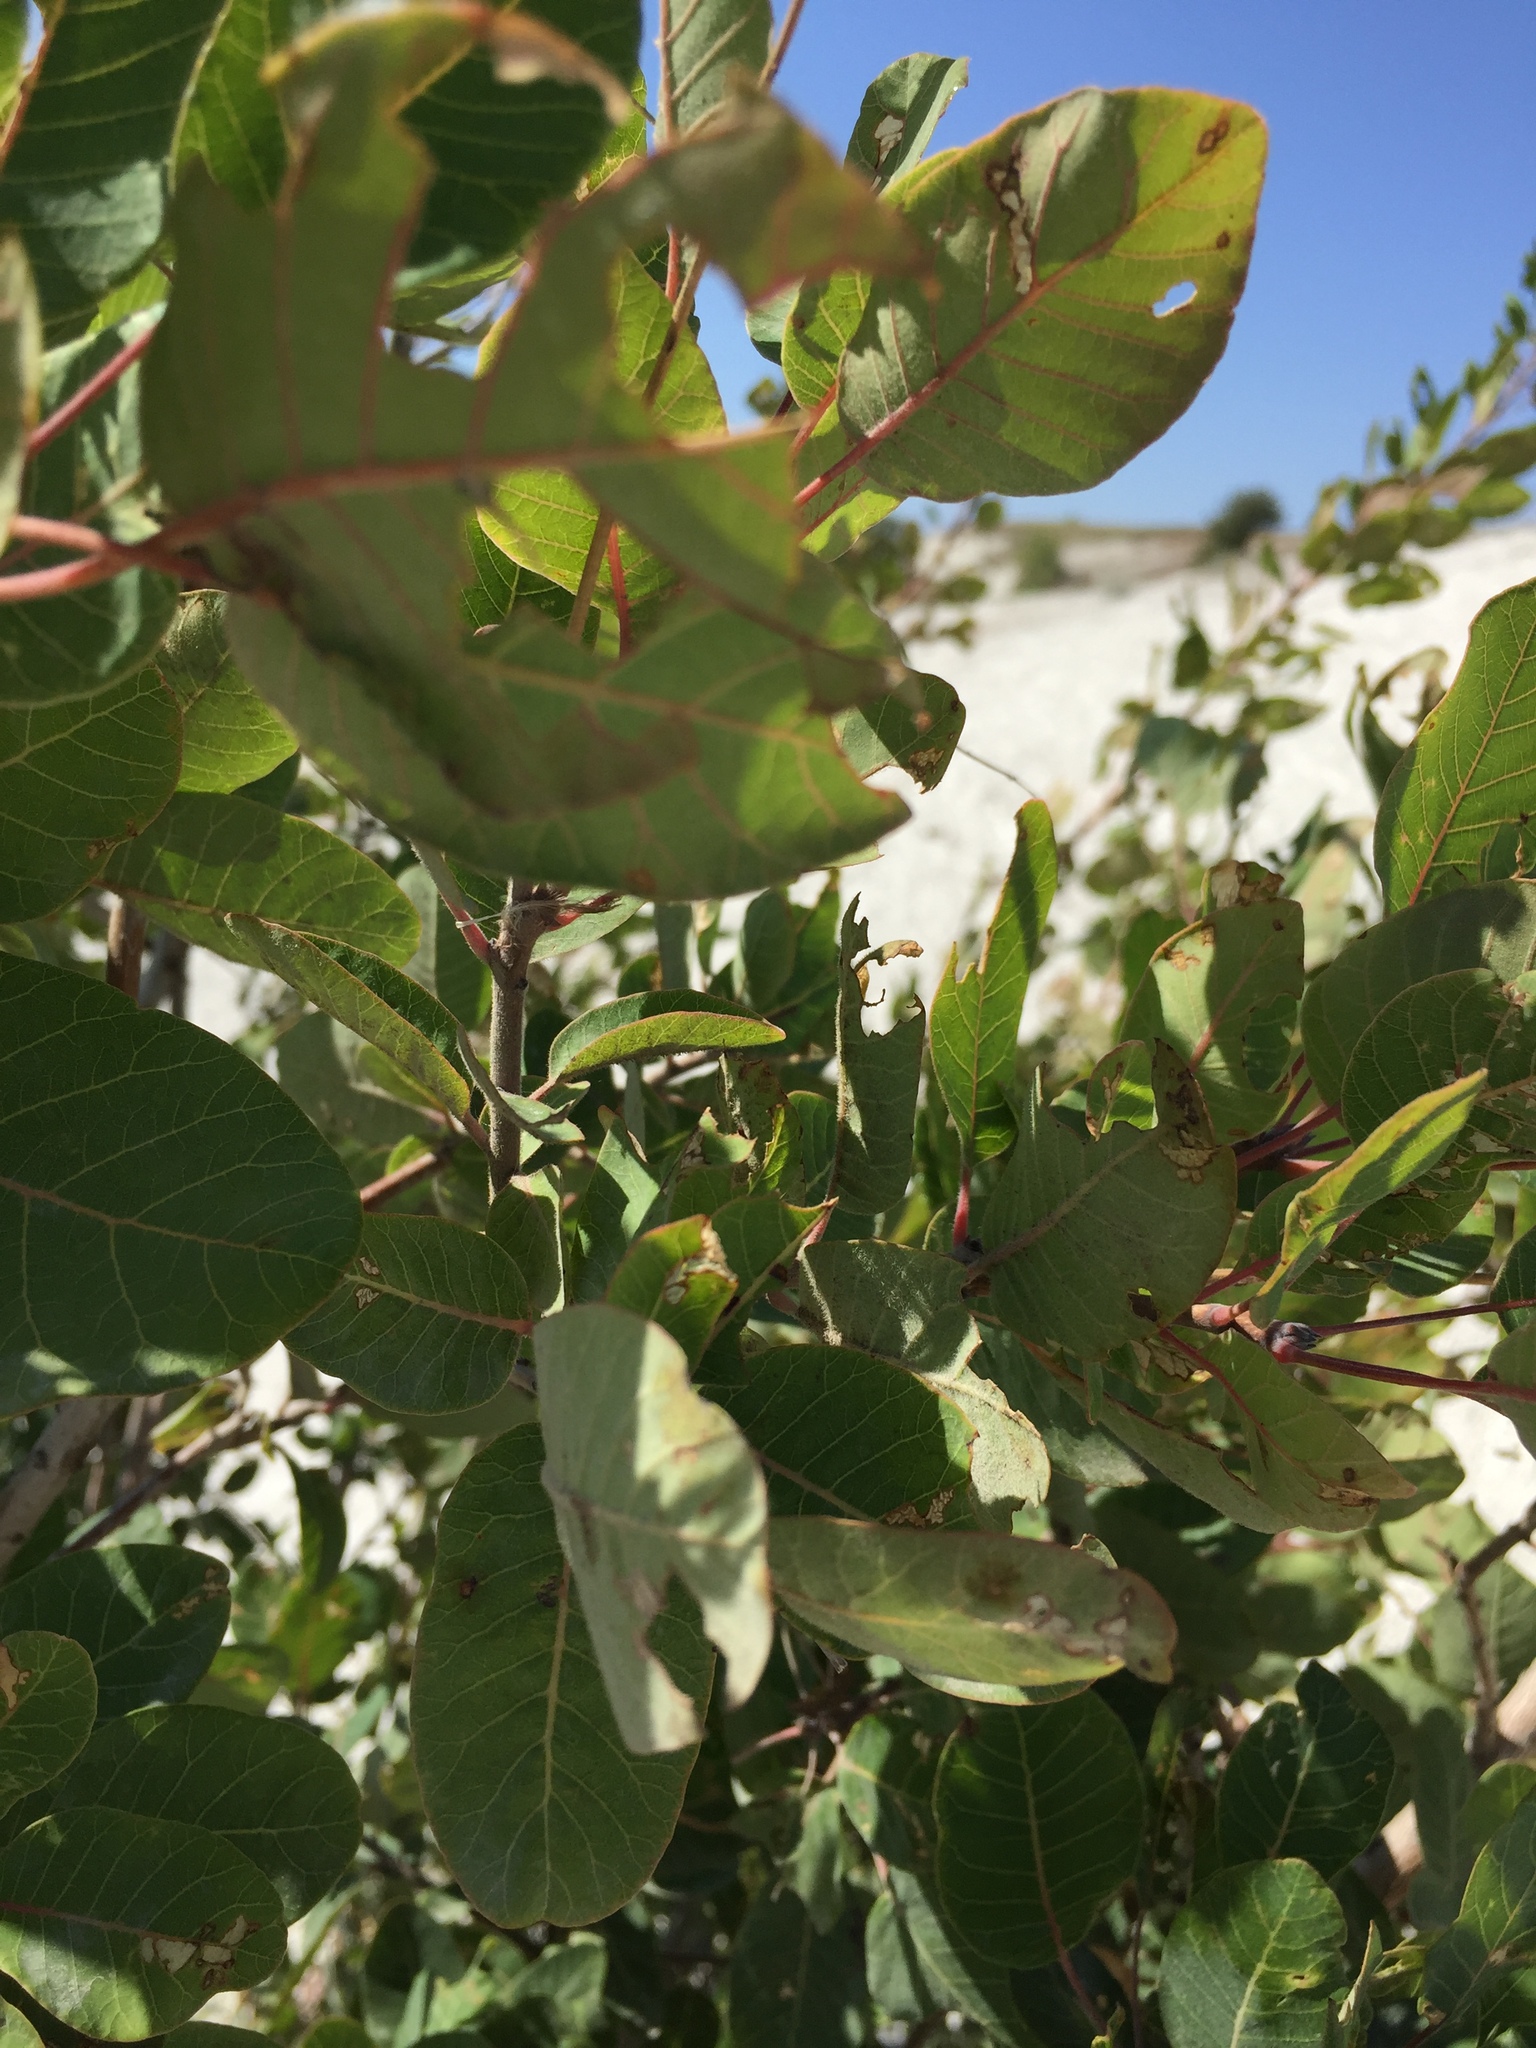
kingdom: Plantae
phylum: Tracheophyta
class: Magnoliopsida
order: Sapindales
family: Anacardiaceae
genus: Cotinus
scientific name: Cotinus coggygria
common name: Smoke-tree
